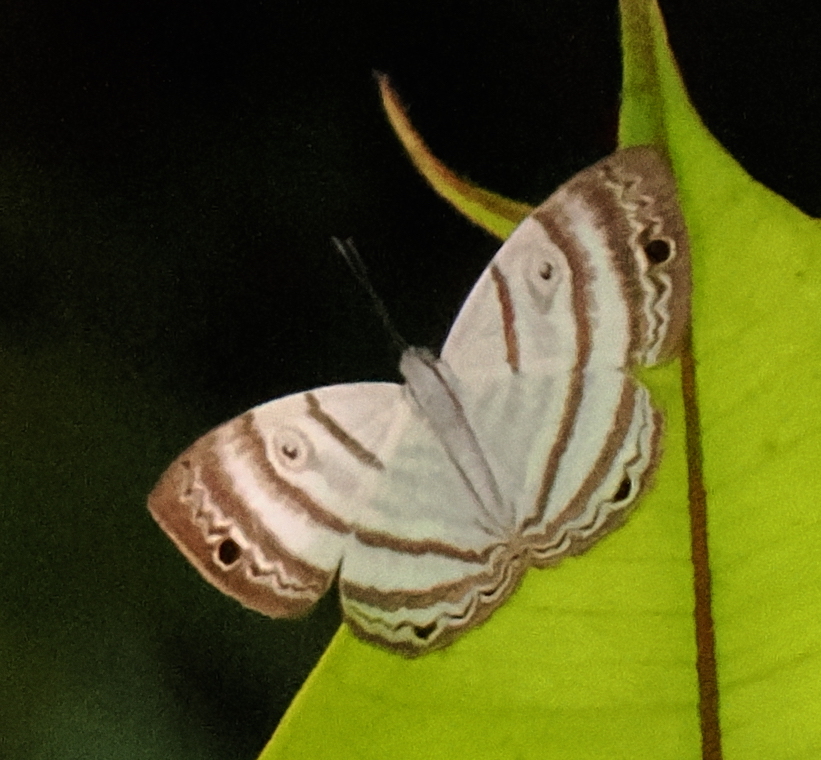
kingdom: Animalia
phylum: Arthropoda
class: Insecta
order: Lepidoptera
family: Riodinidae
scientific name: Riodinidae
